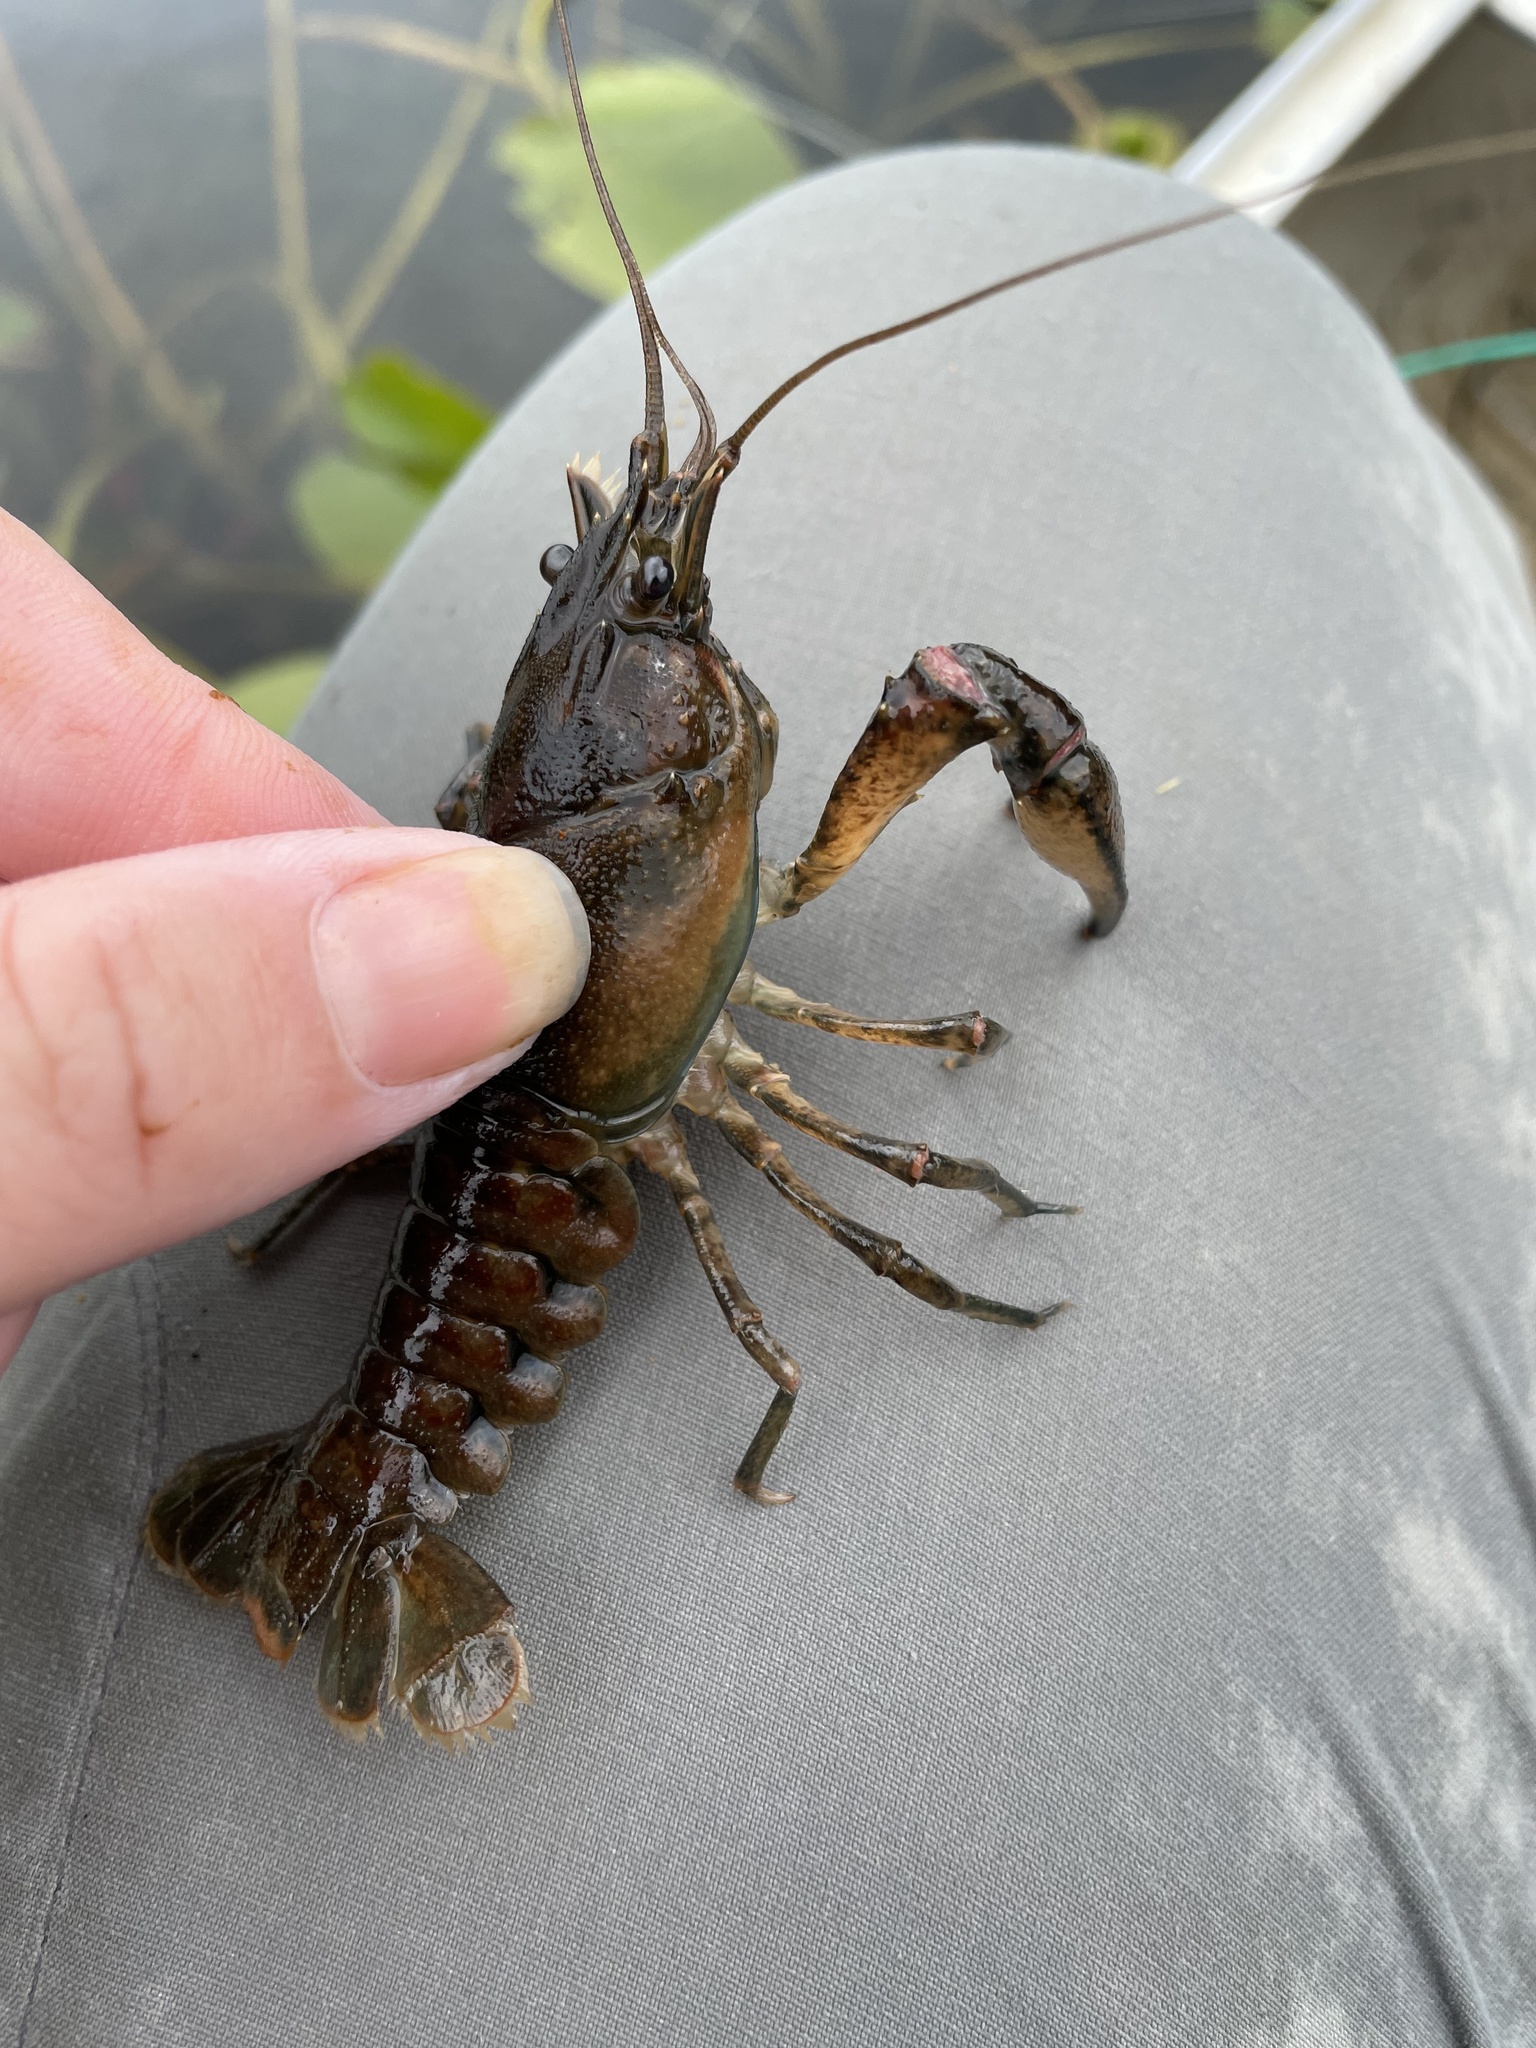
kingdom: Animalia
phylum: Arthropoda
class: Malacostraca
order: Decapoda
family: Cambaridae
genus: Faxonius
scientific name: Faxonius limosus
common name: American crayfish
